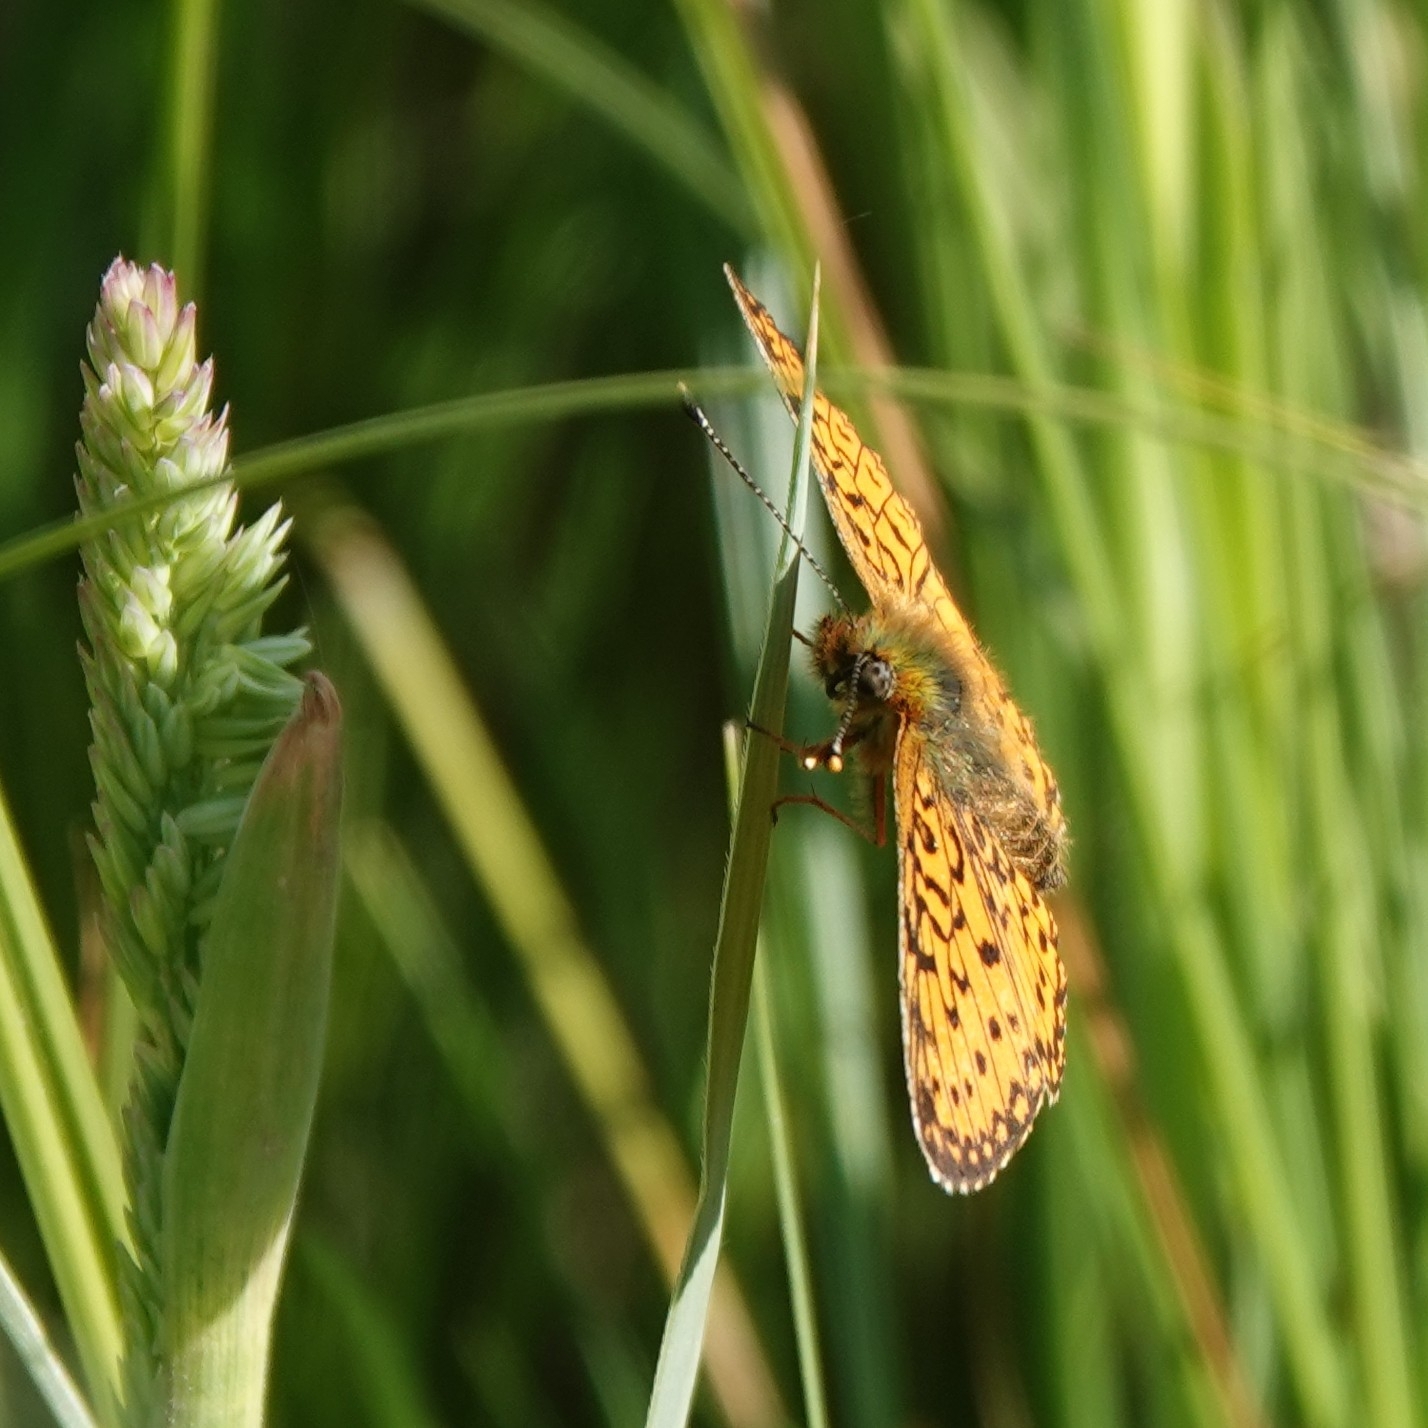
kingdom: Animalia
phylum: Arthropoda
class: Insecta
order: Lepidoptera
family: Nymphalidae
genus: Boloria
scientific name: Boloria selene
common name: Small pearl-bordered fritillary
